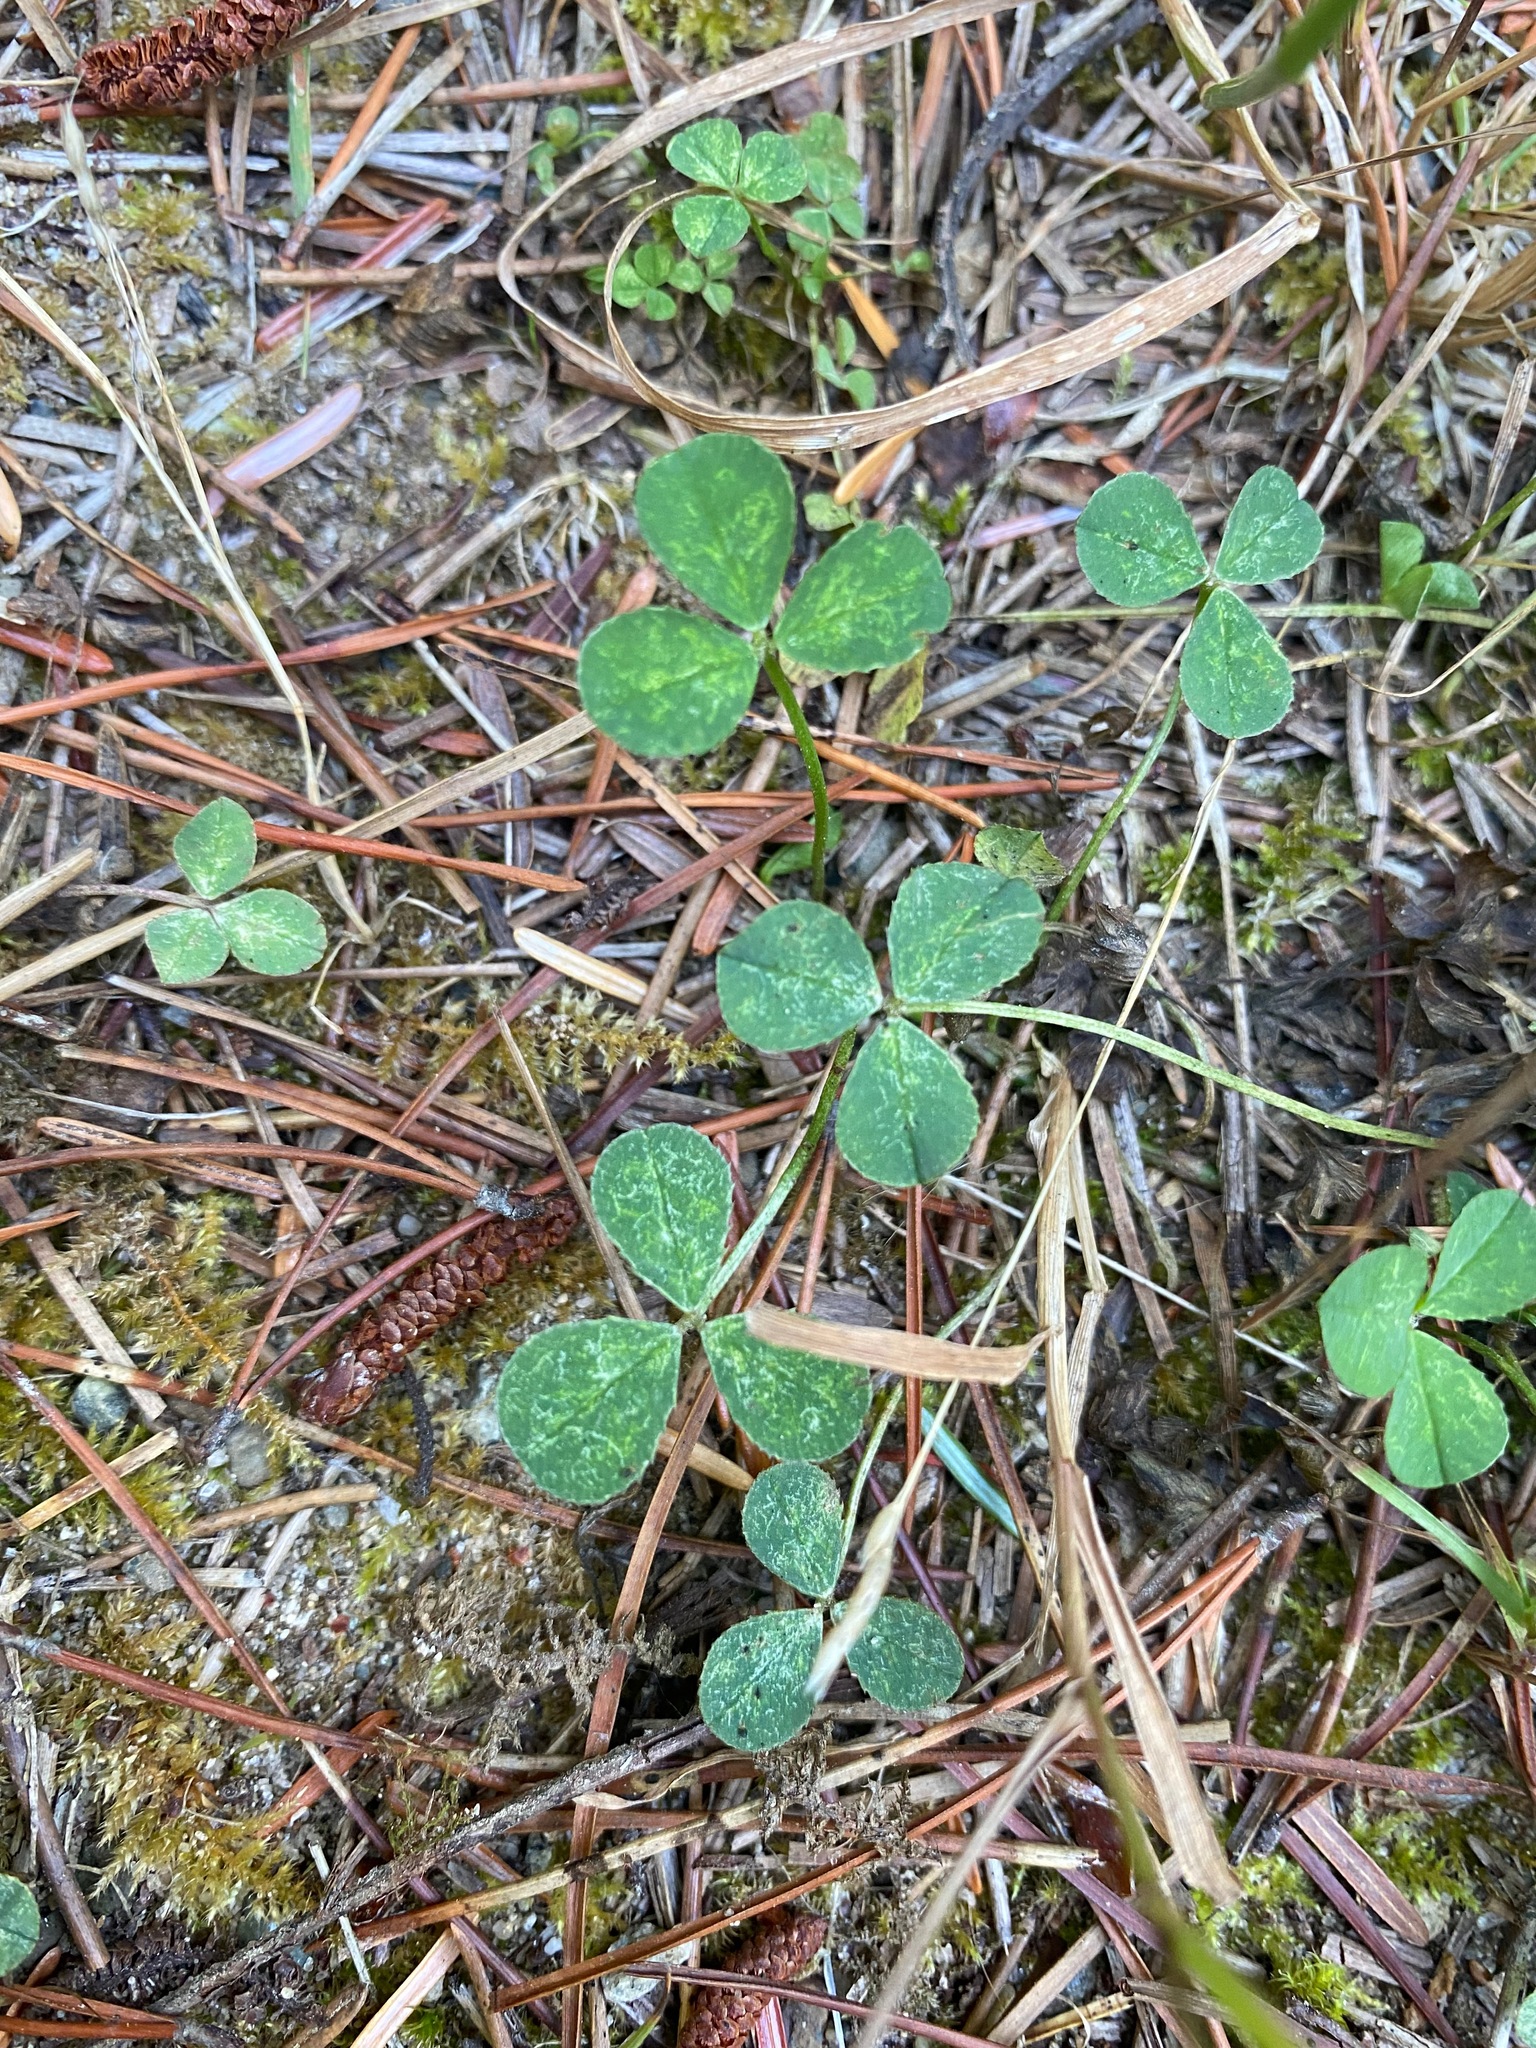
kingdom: Plantae
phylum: Tracheophyta
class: Magnoliopsida
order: Fabales
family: Fabaceae
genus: Trifolium
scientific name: Trifolium repens
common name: White clover
